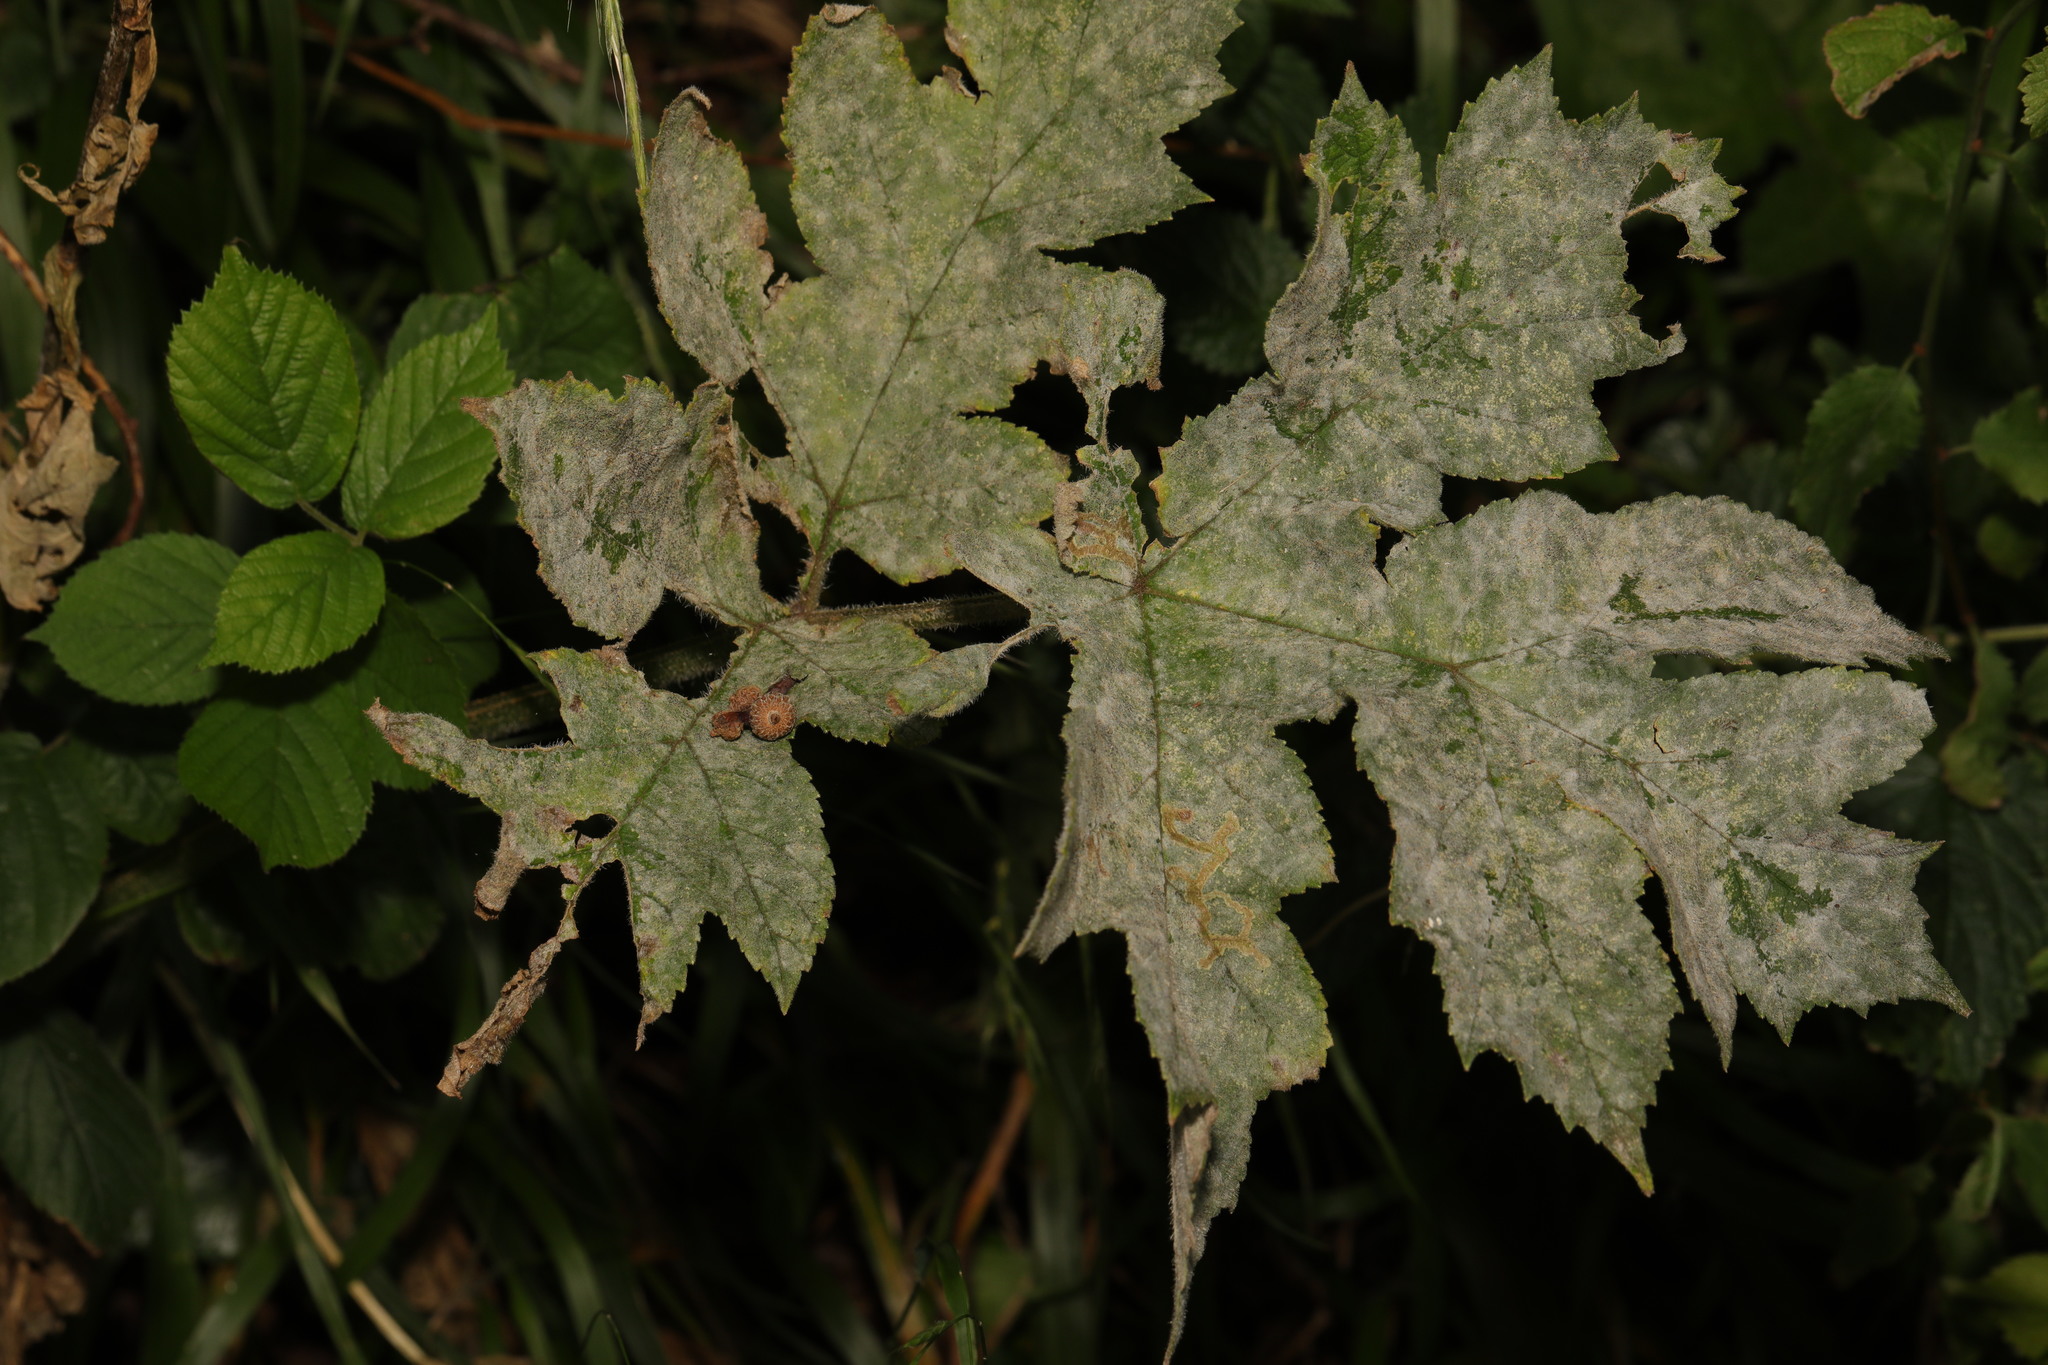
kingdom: Plantae
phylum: Tracheophyta
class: Magnoliopsida
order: Apiales
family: Apiaceae
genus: Heracleum
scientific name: Heracleum sphondylium
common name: Hogweed
